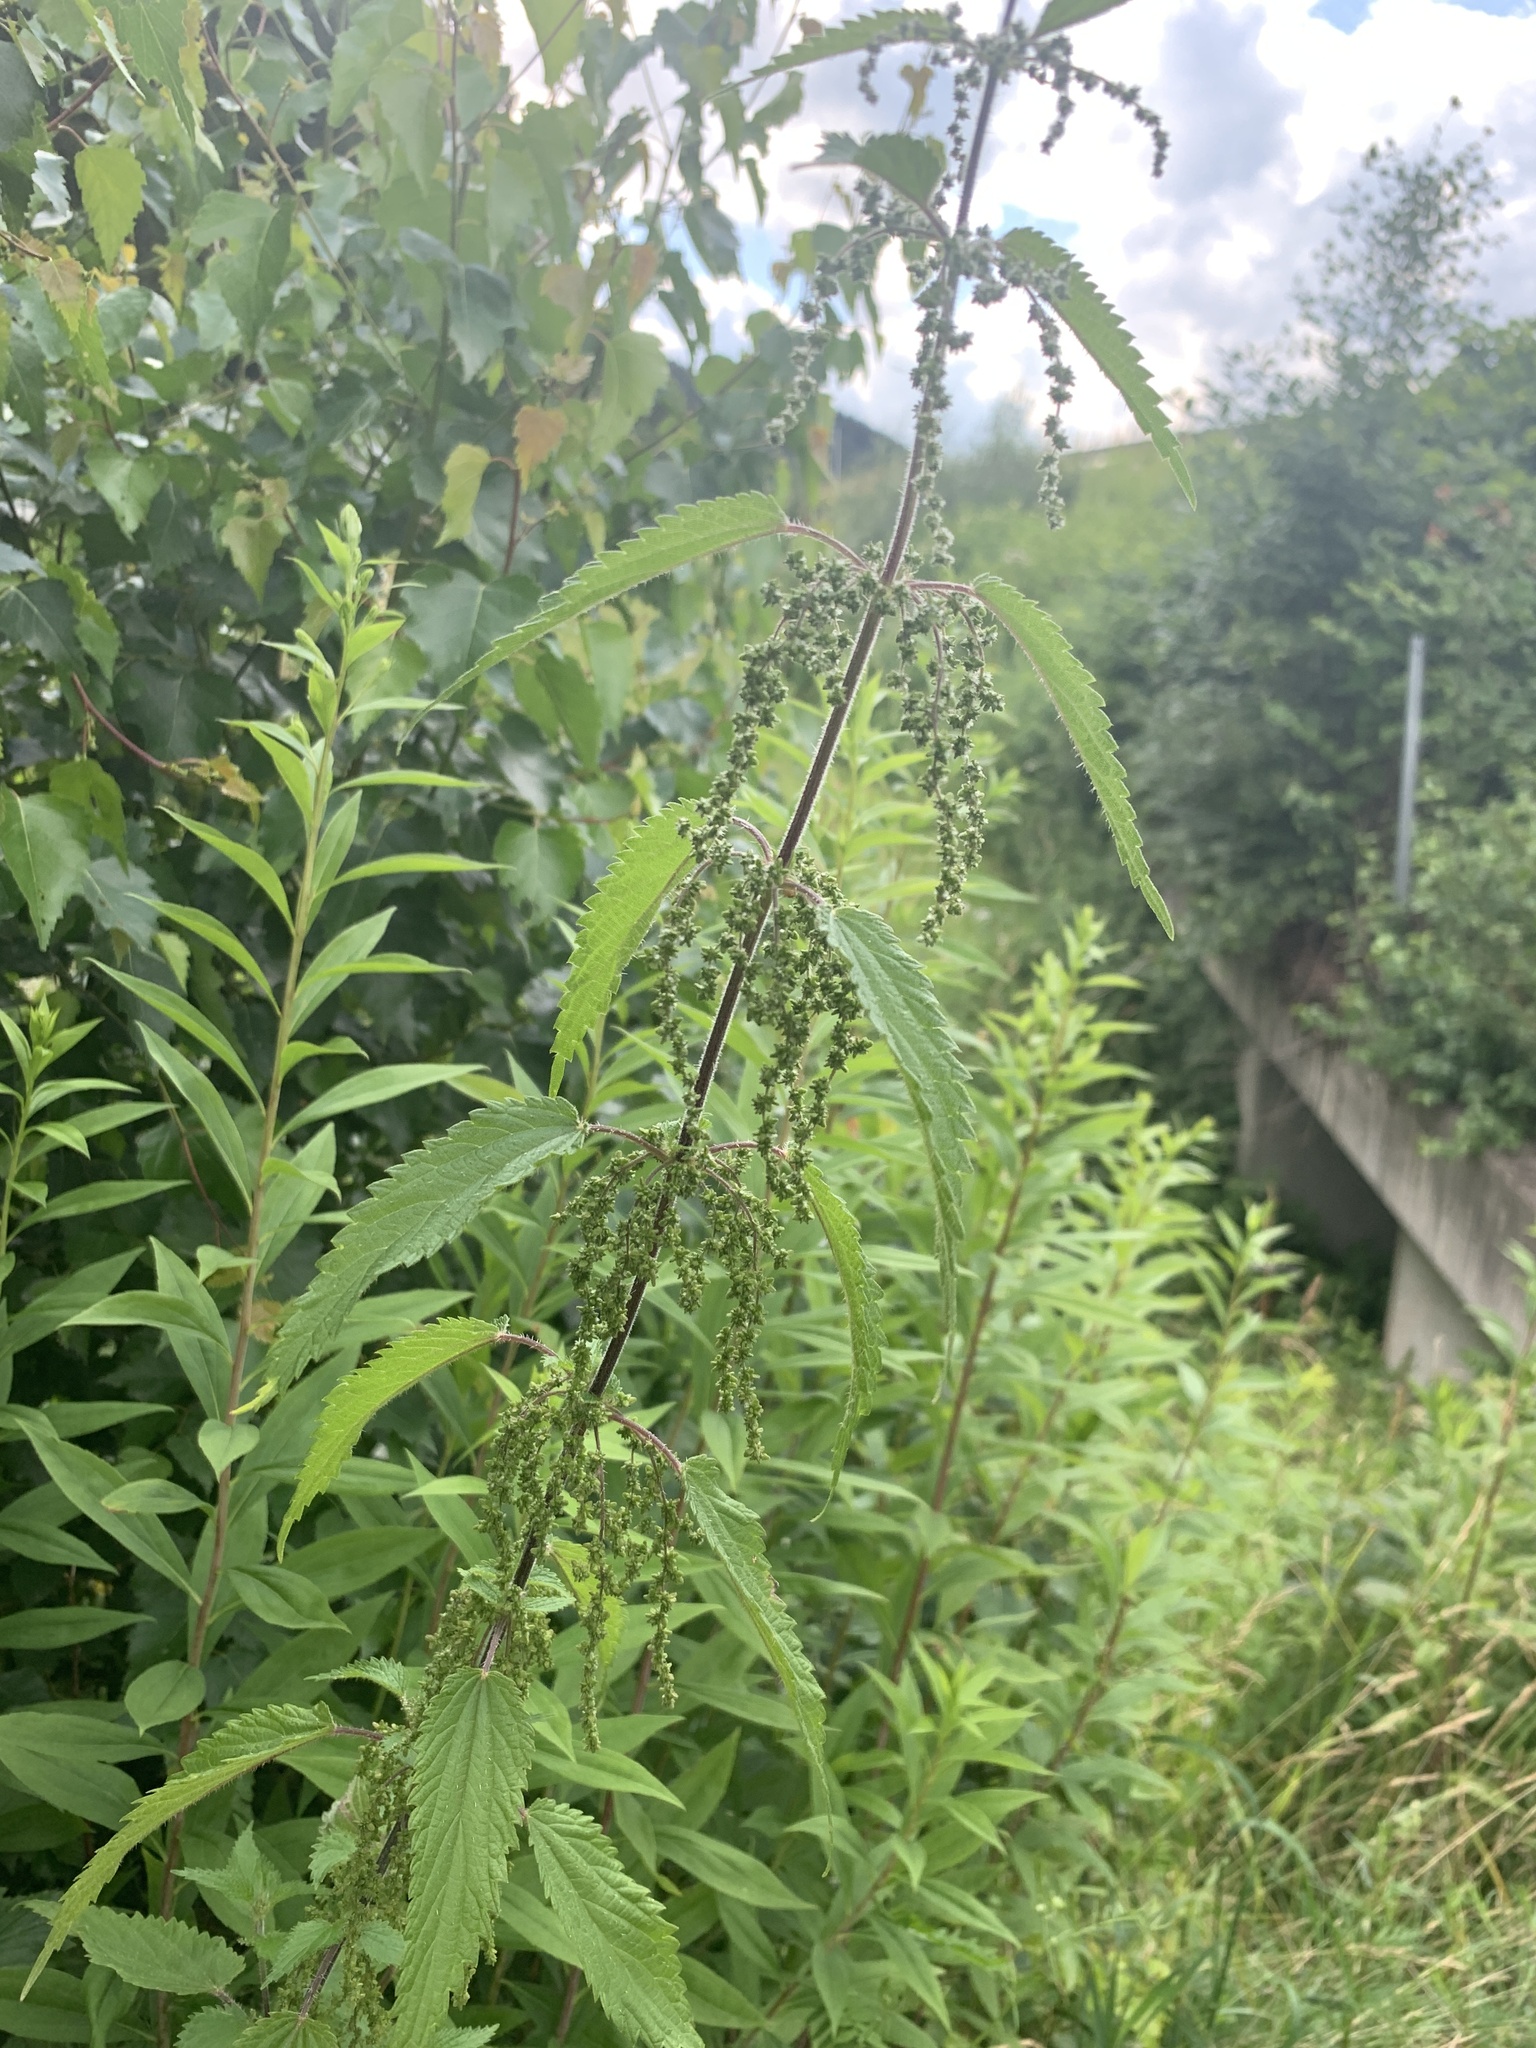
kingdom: Plantae
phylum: Tracheophyta
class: Magnoliopsida
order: Rosales
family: Urticaceae
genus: Urtica
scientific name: Urtica dioica
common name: Common nettle
